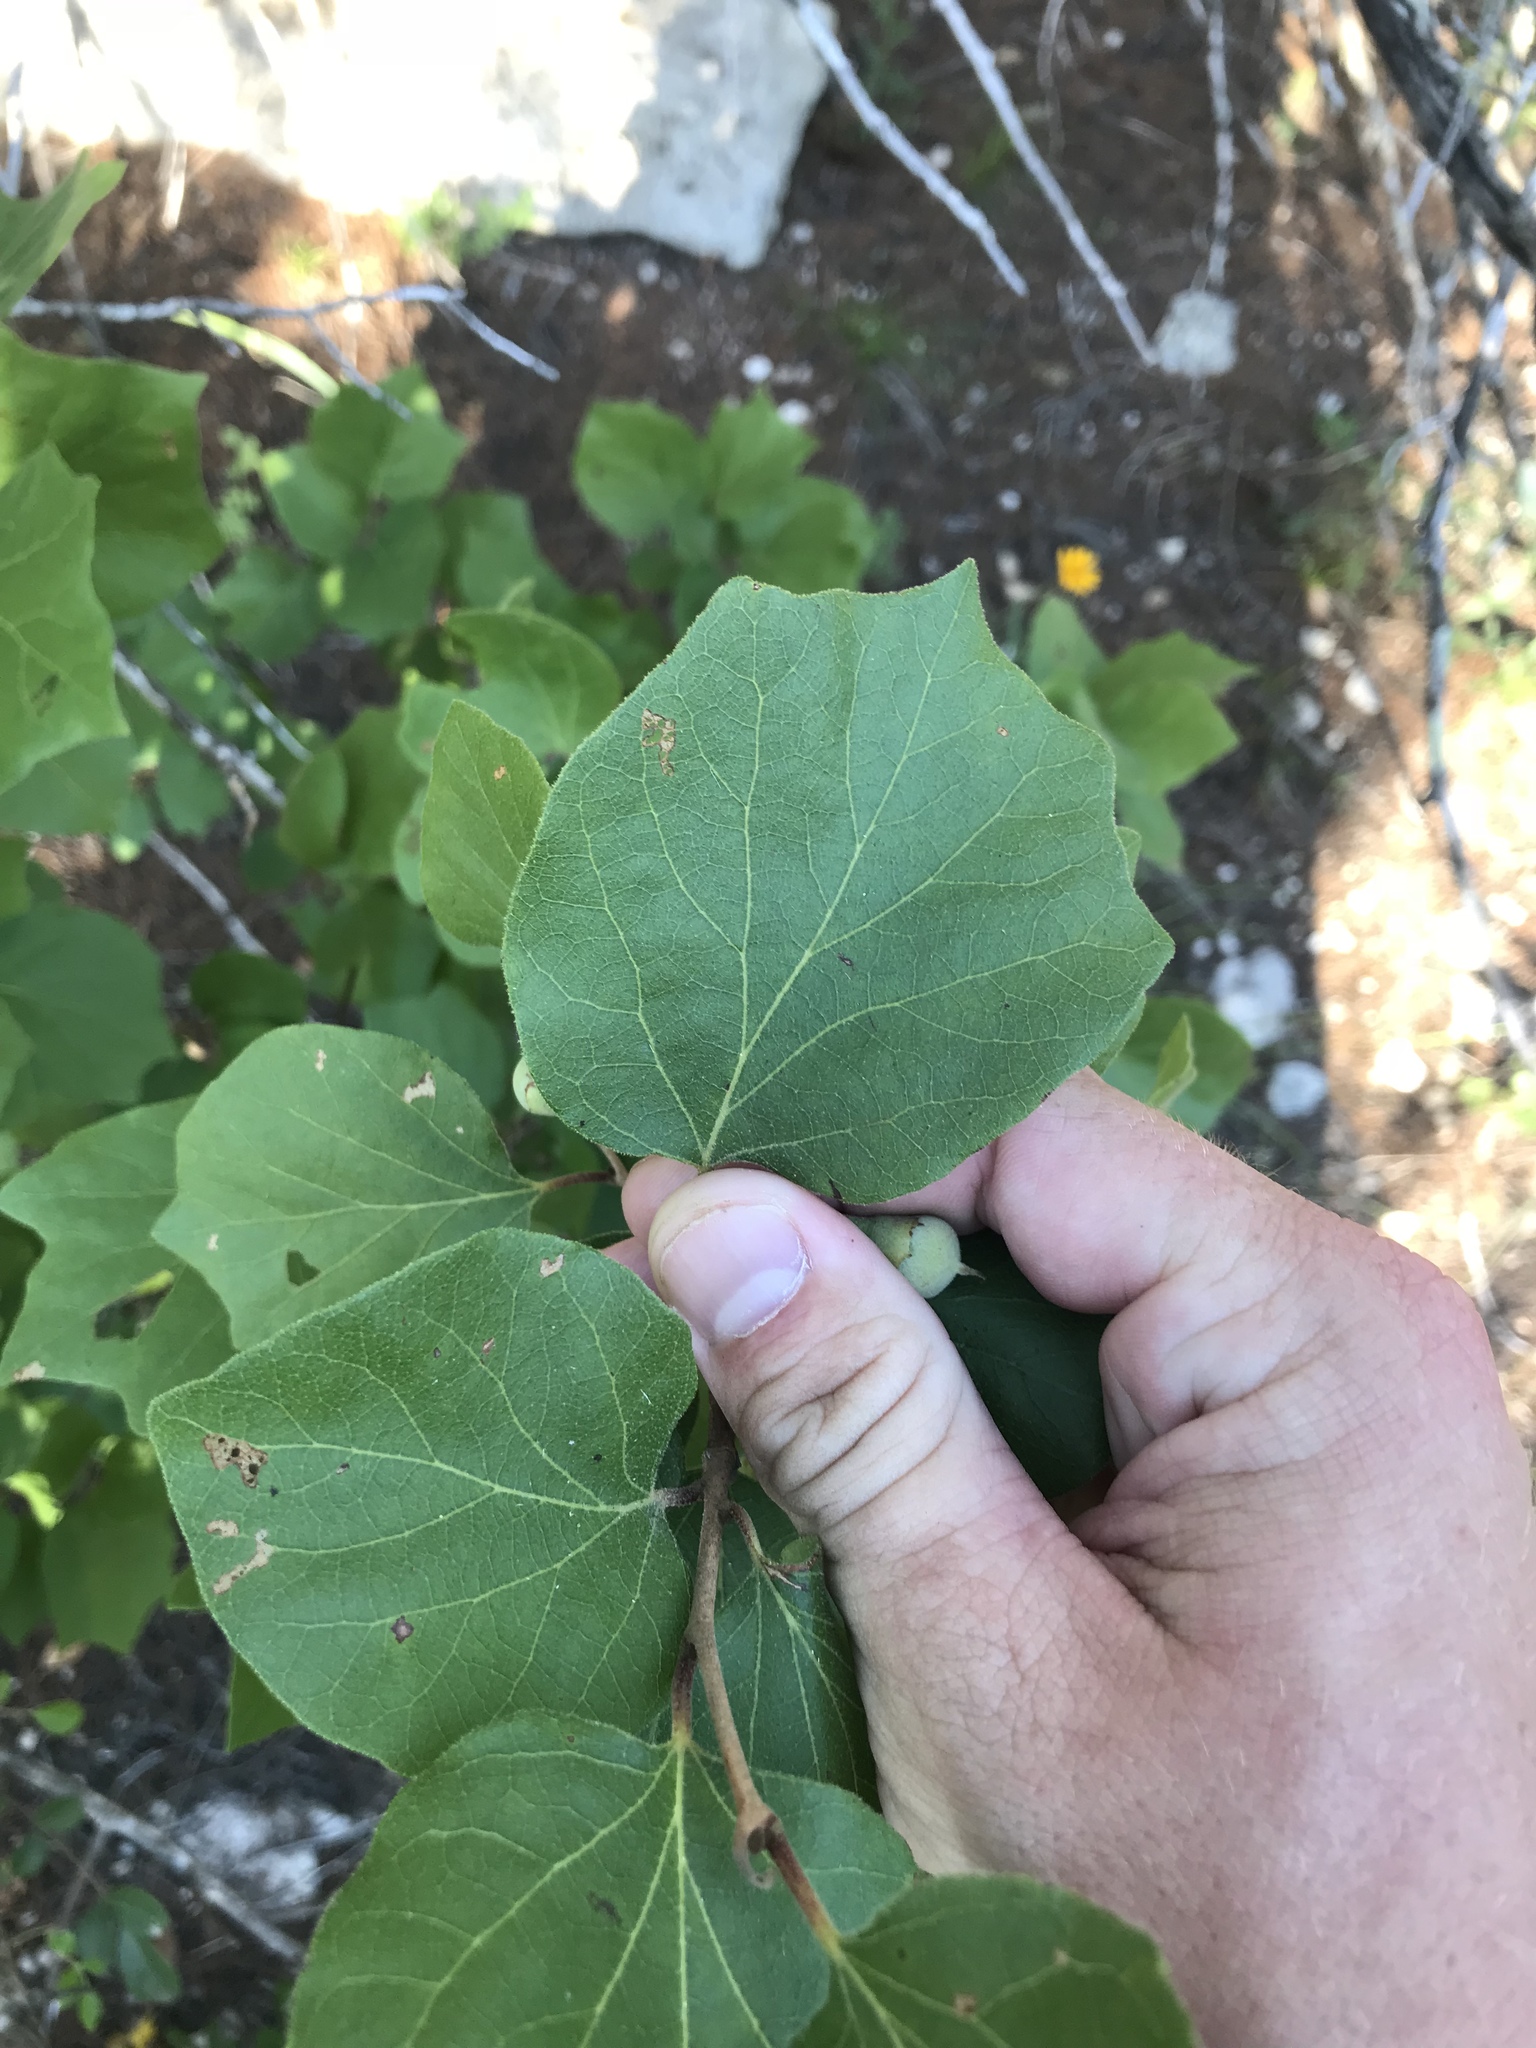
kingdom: Plantae
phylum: Tracheophyta
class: Magnoliopsida
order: Ericales
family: Styracaceae
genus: Styrax
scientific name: Styrax platanifolius
